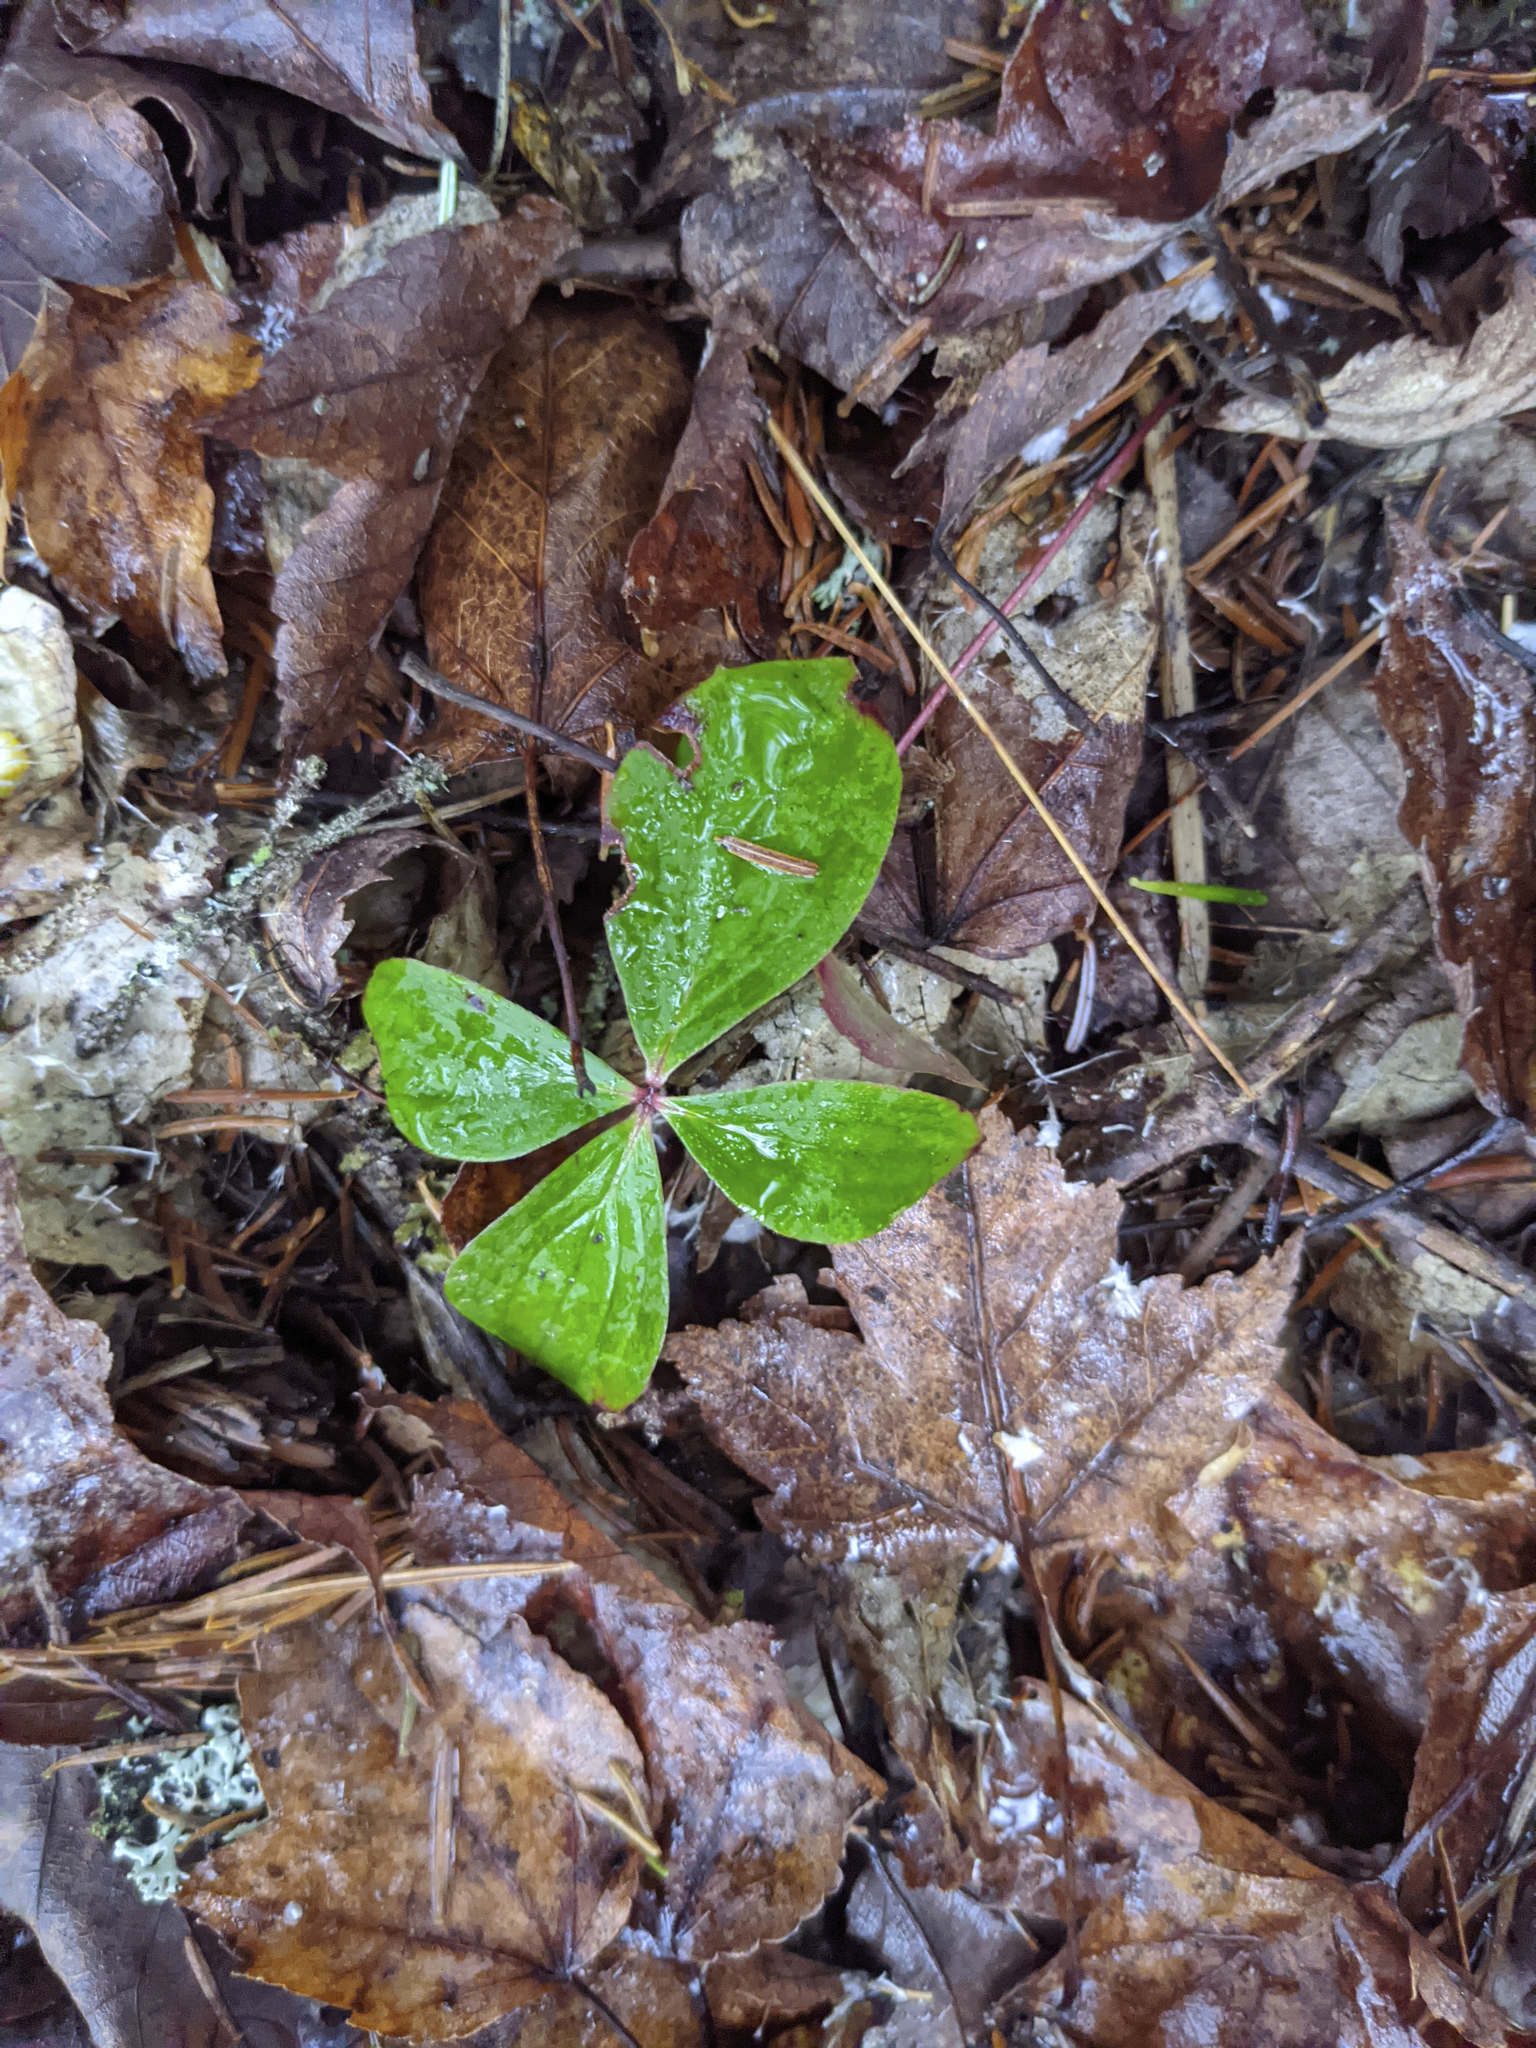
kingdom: Plantae
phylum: Tracheophyta
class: Magnoliopsida
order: Cornales
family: Cornaceae
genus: Cornus
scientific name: Cornus canadensis
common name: Creeping dogwood
